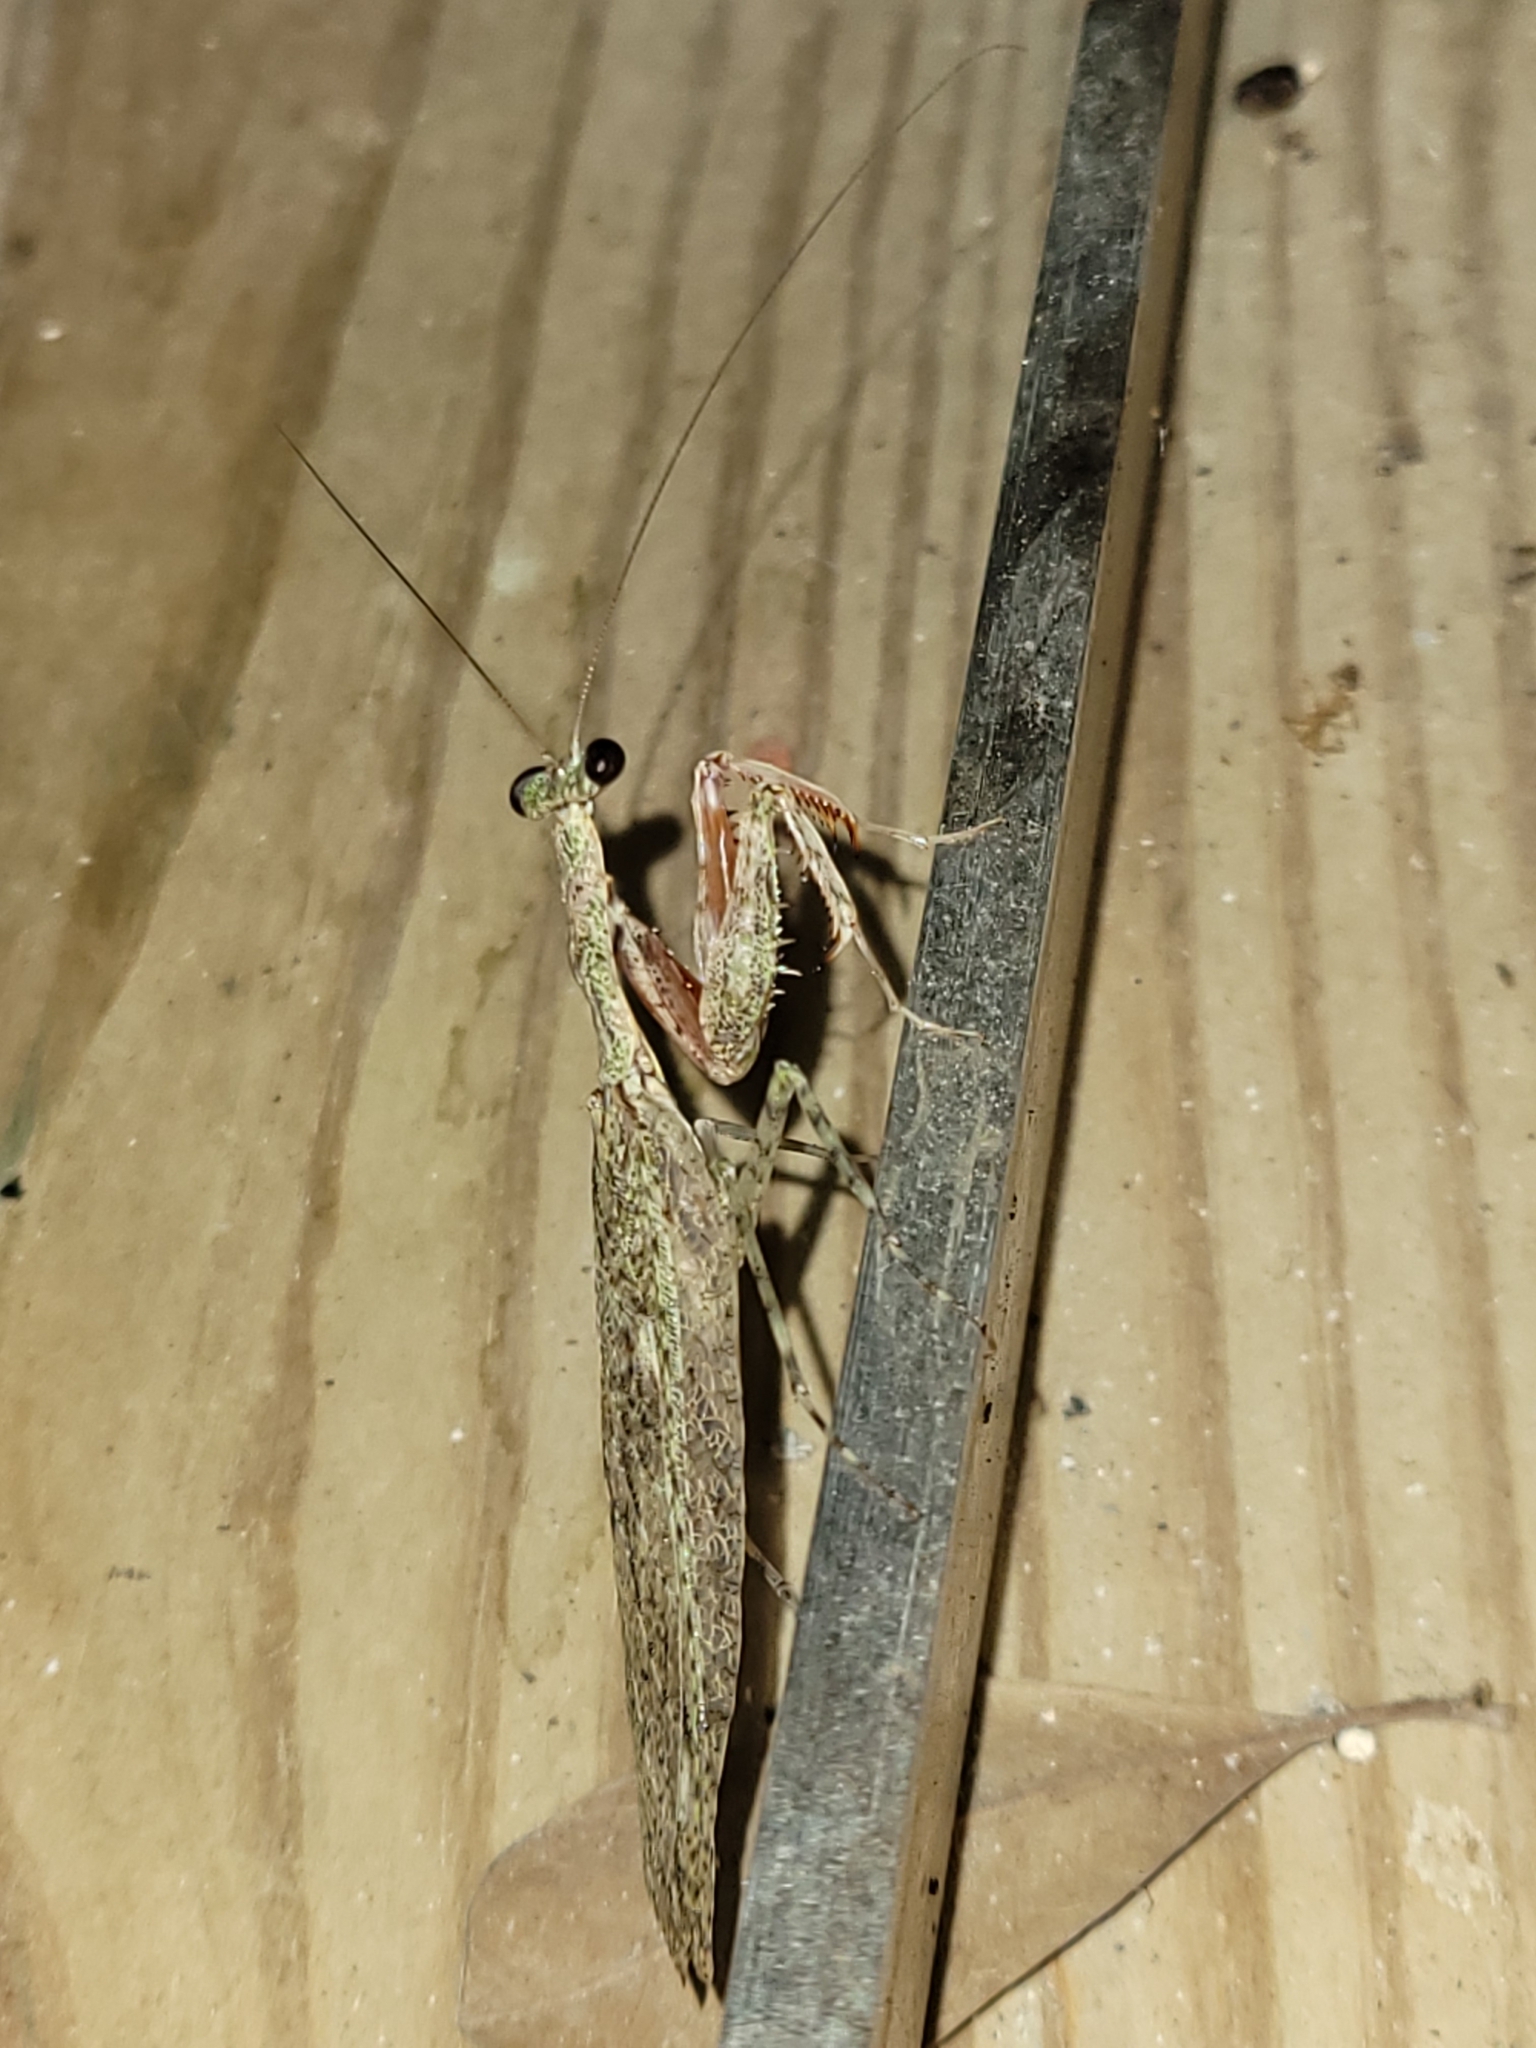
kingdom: Animalia
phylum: Arthropoda
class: Insecta
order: Mantodea
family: Epaphroditidae
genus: Gonatista
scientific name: Gonatista reticulata
